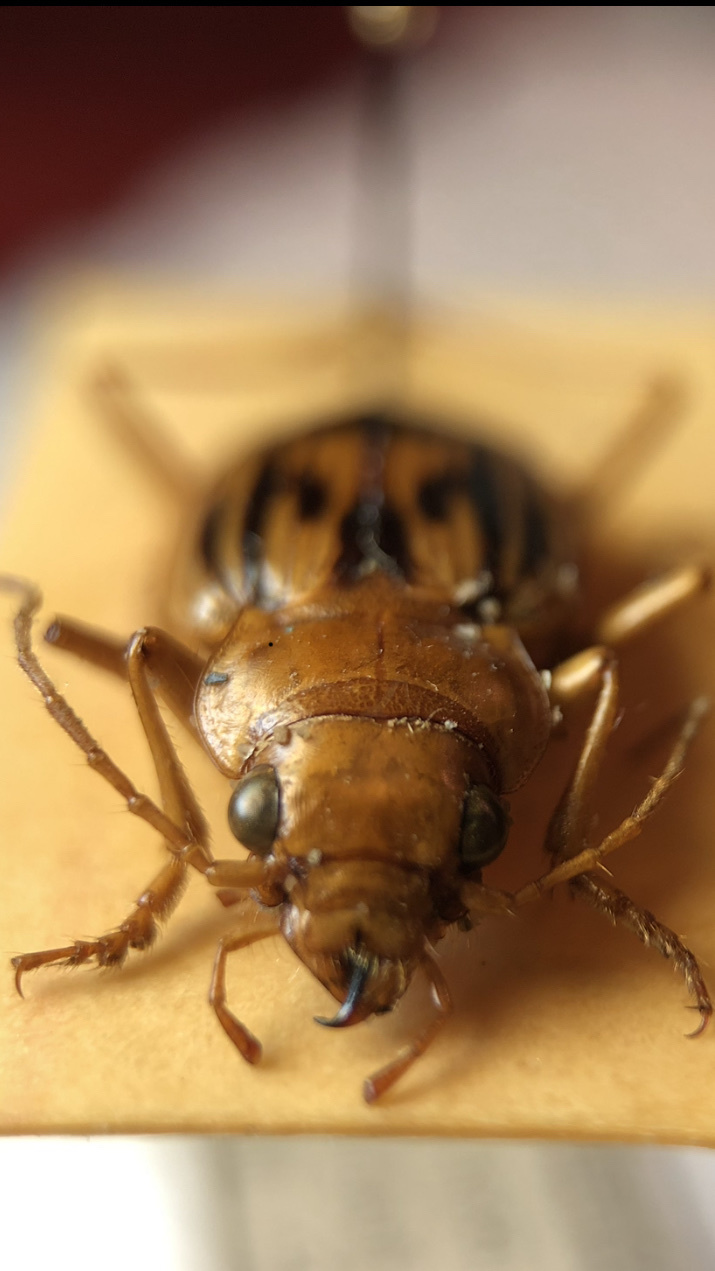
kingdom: Animalia
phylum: Arthropoda
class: Insecta
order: Coleoptera
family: Carabidae
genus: Nebria
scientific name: Nebria complanata
